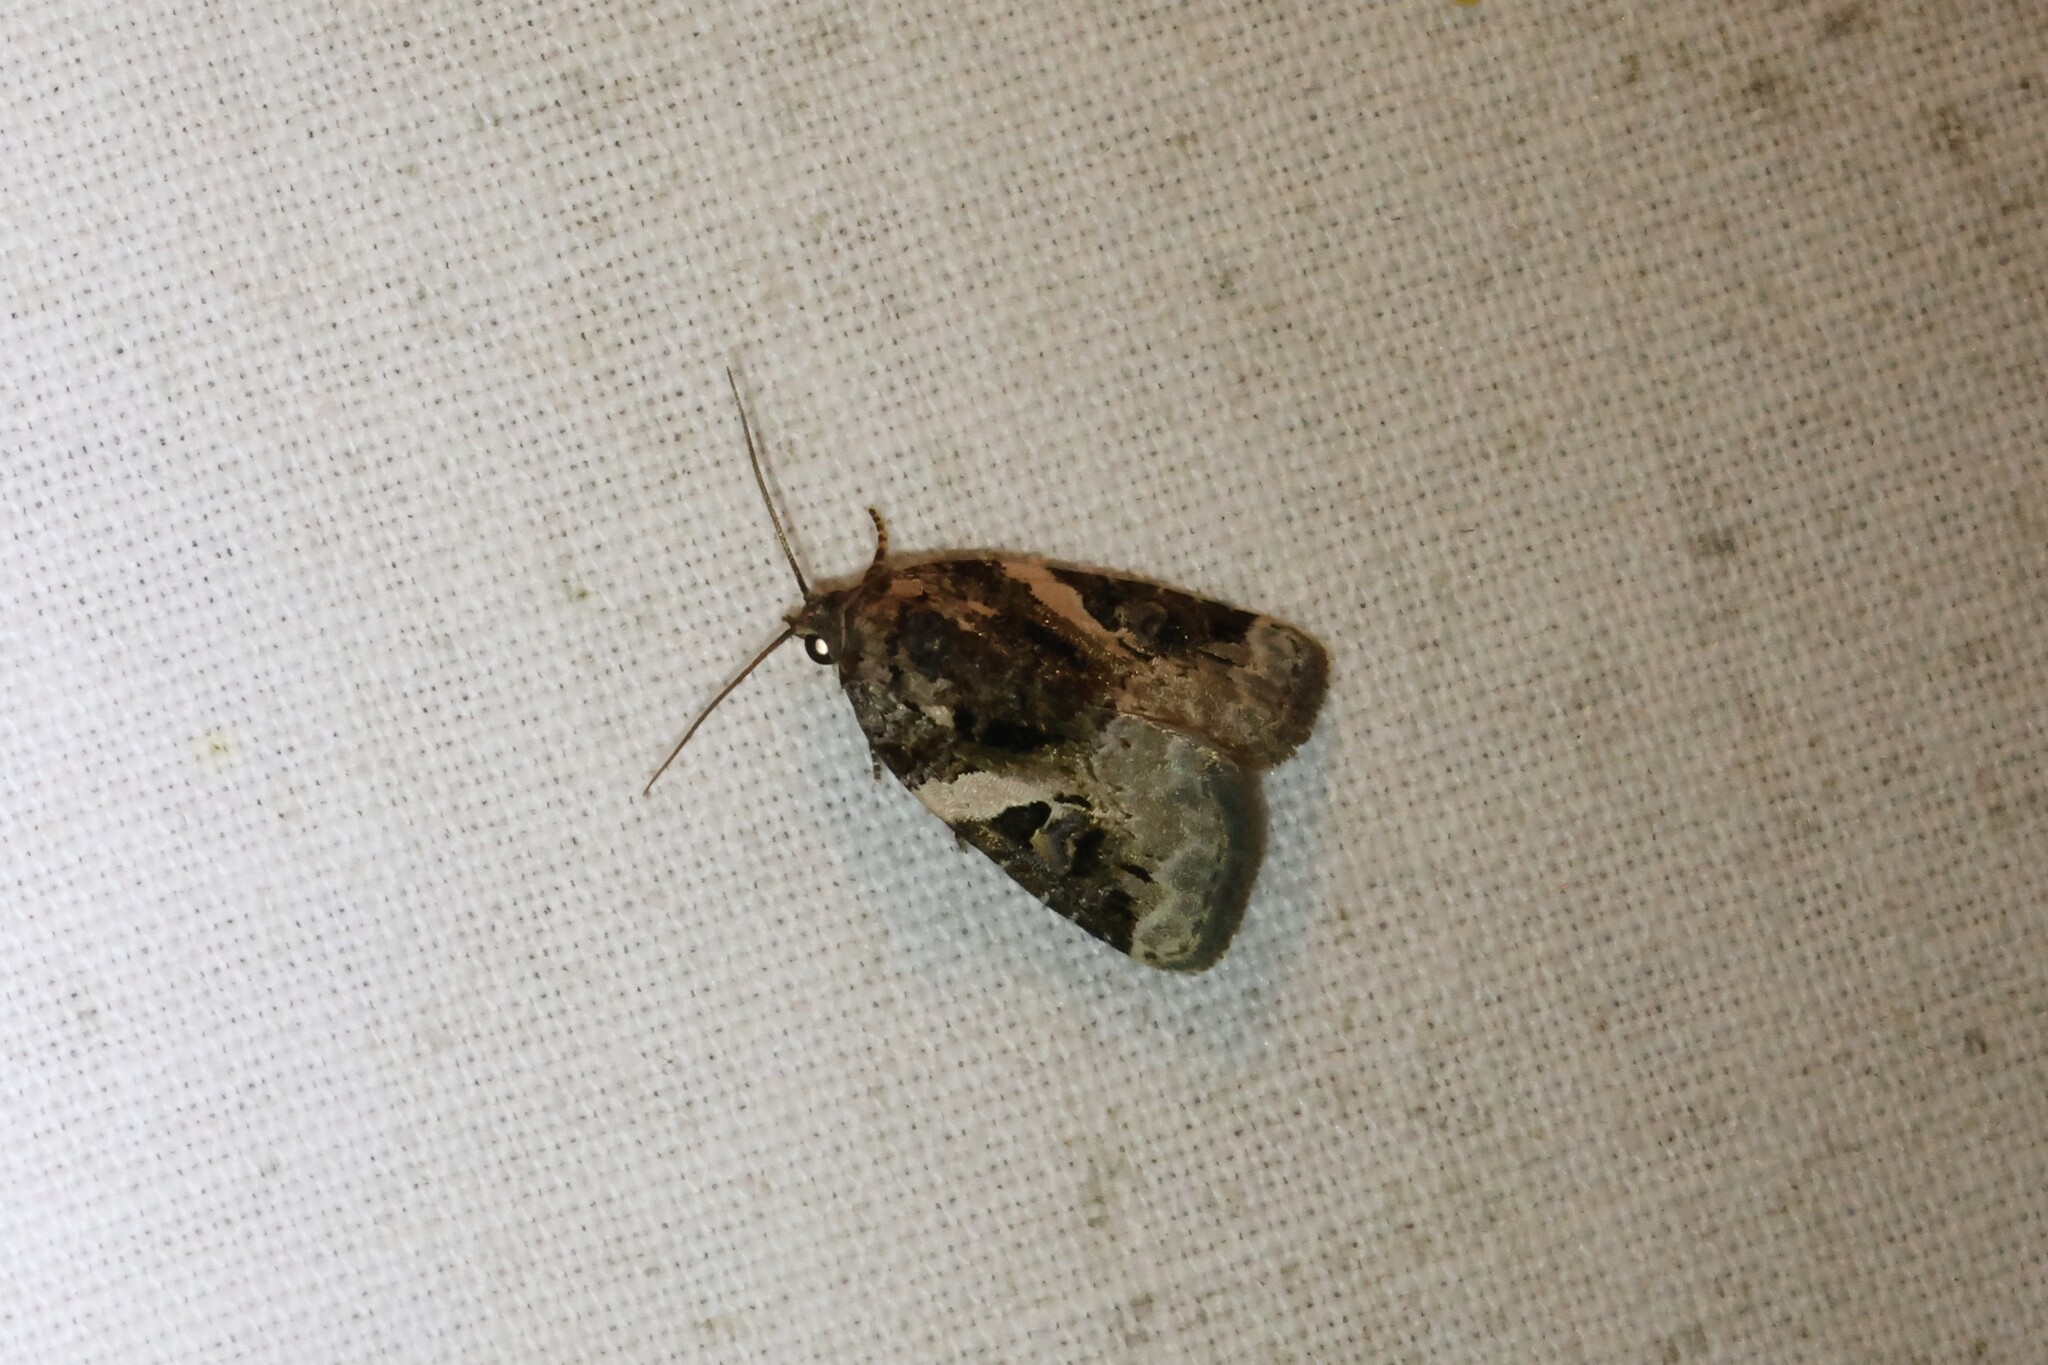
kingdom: Animalia
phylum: Arthropoda
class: Insecta
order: Lepidoptera
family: Noctuidae
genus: Pseudeustrotia
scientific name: Pseudeustrotia carneola
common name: Pink-barred lithacodia moth
